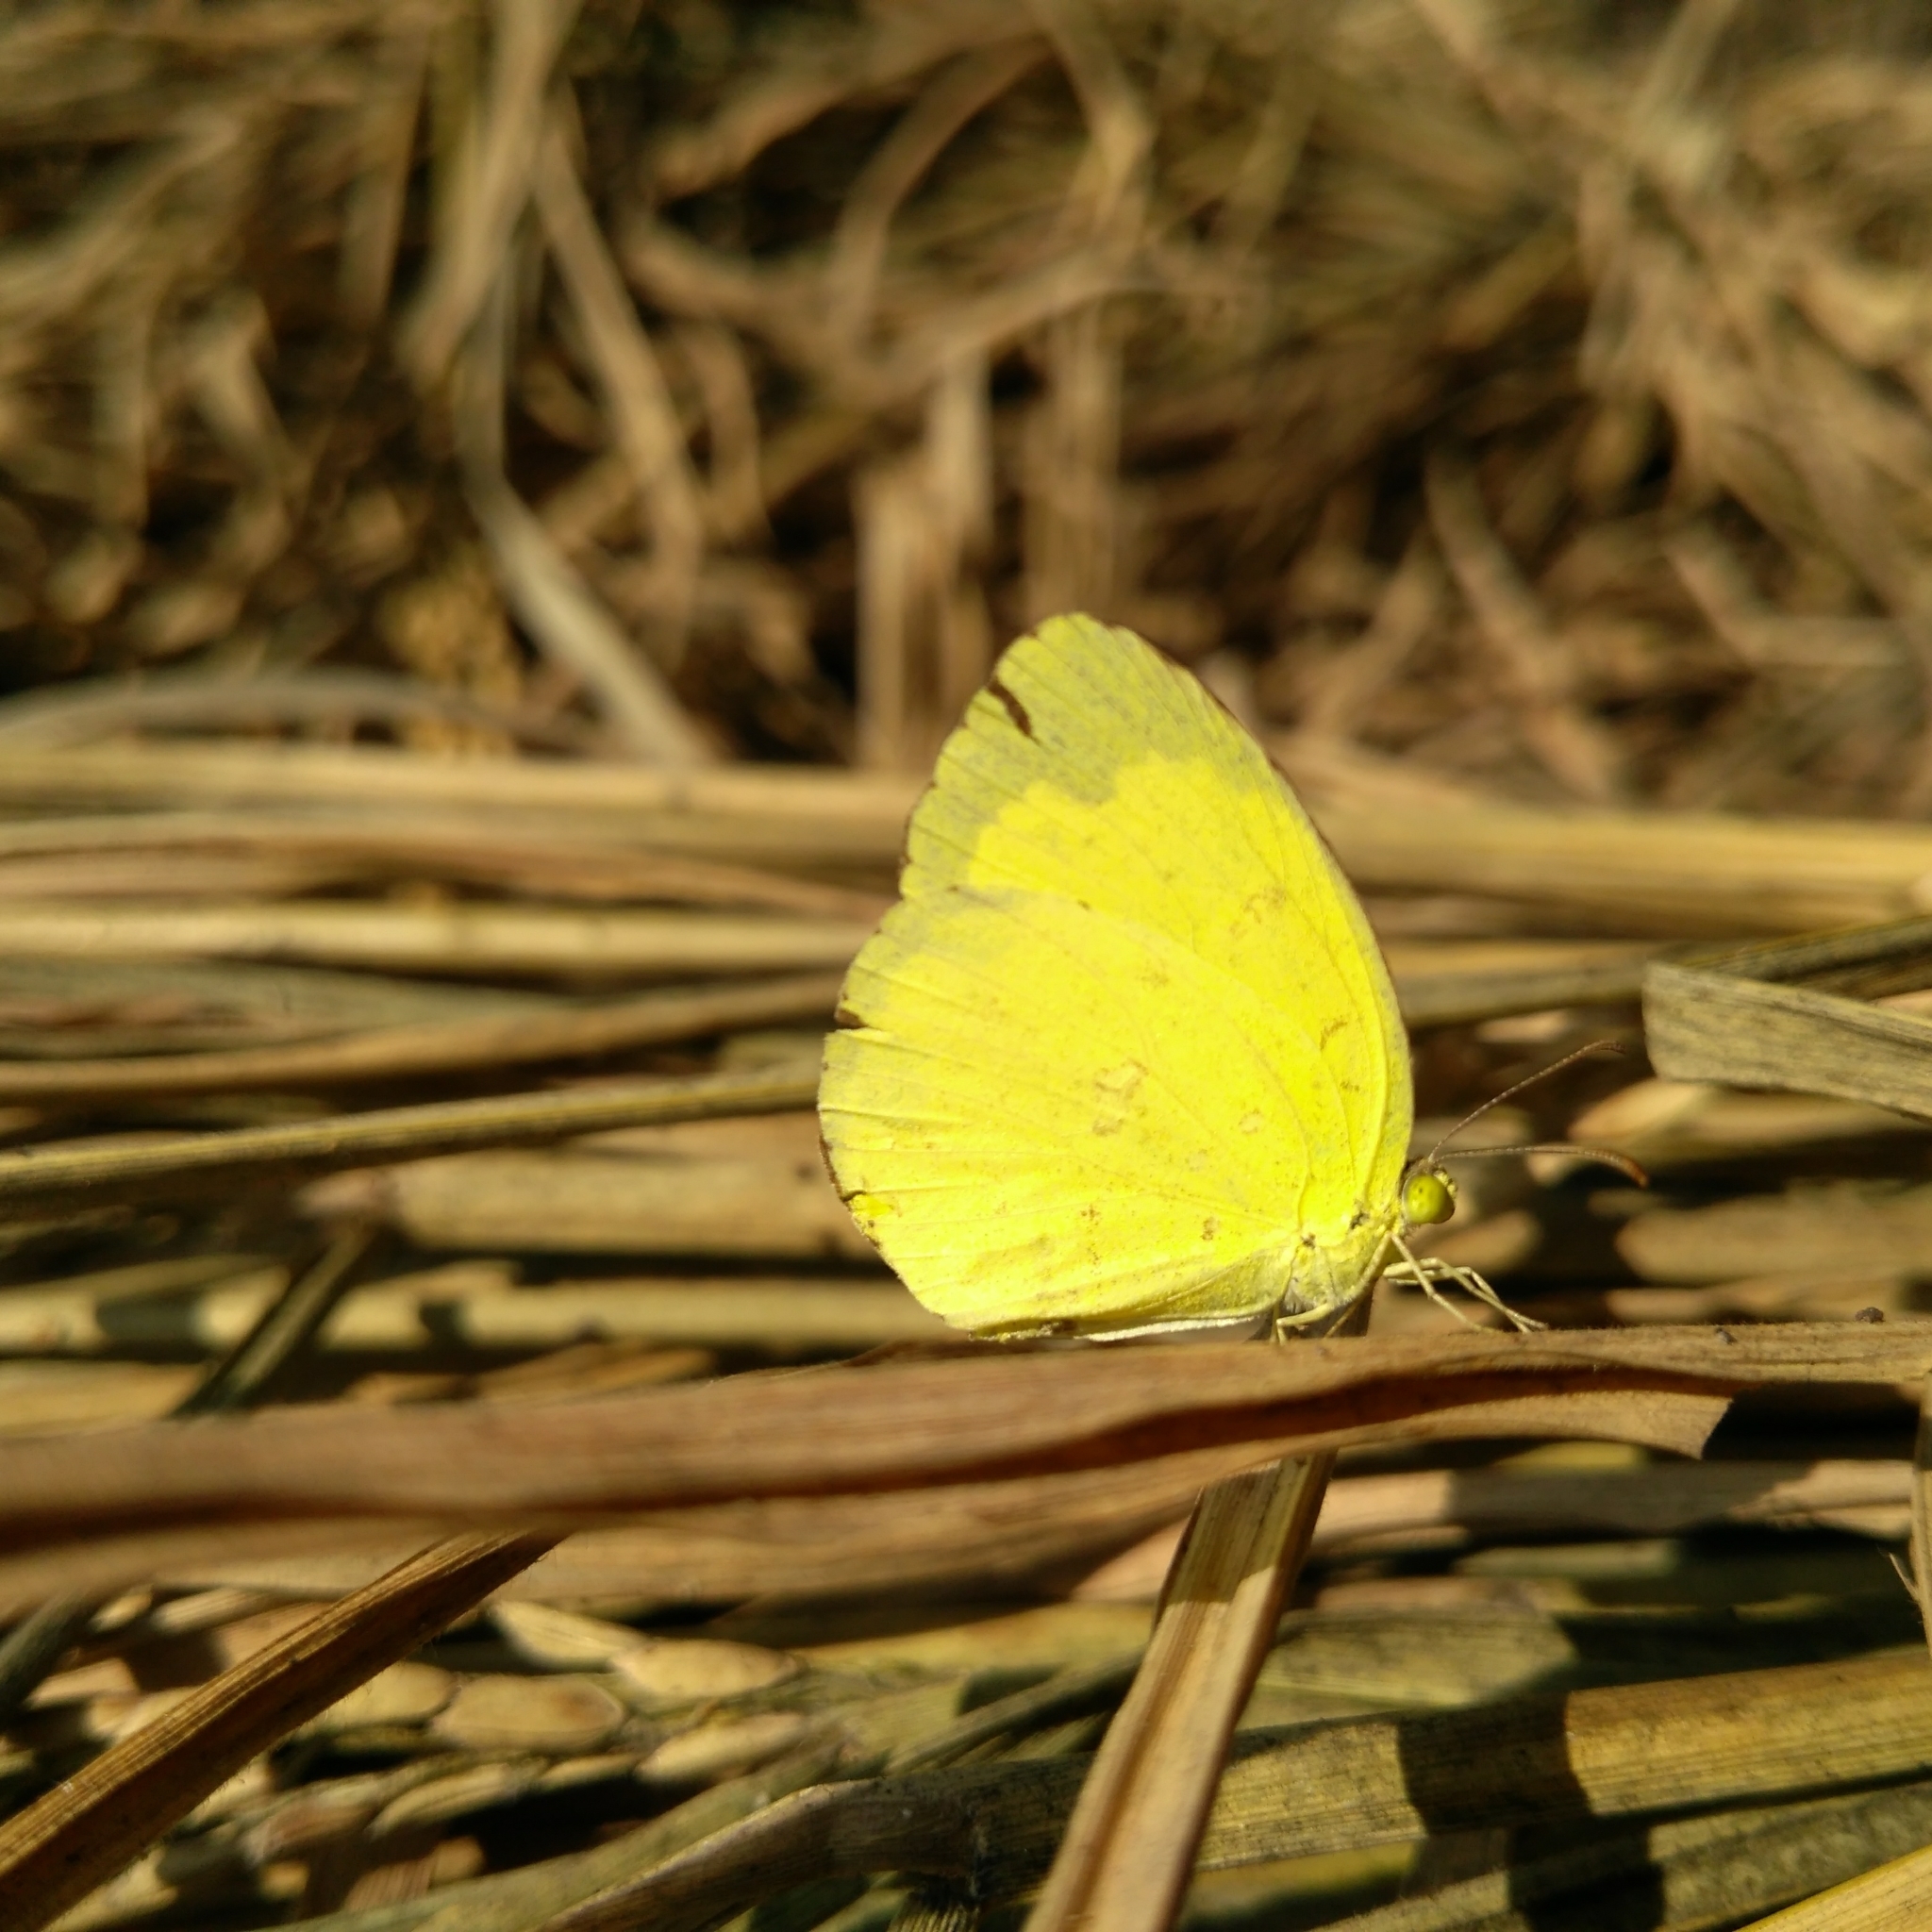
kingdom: Animalia
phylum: Arthropoda
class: Insecta
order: Lepidoptera
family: Pieridae
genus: Eurema
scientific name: Eurema hecabe
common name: Pale grass yellow
